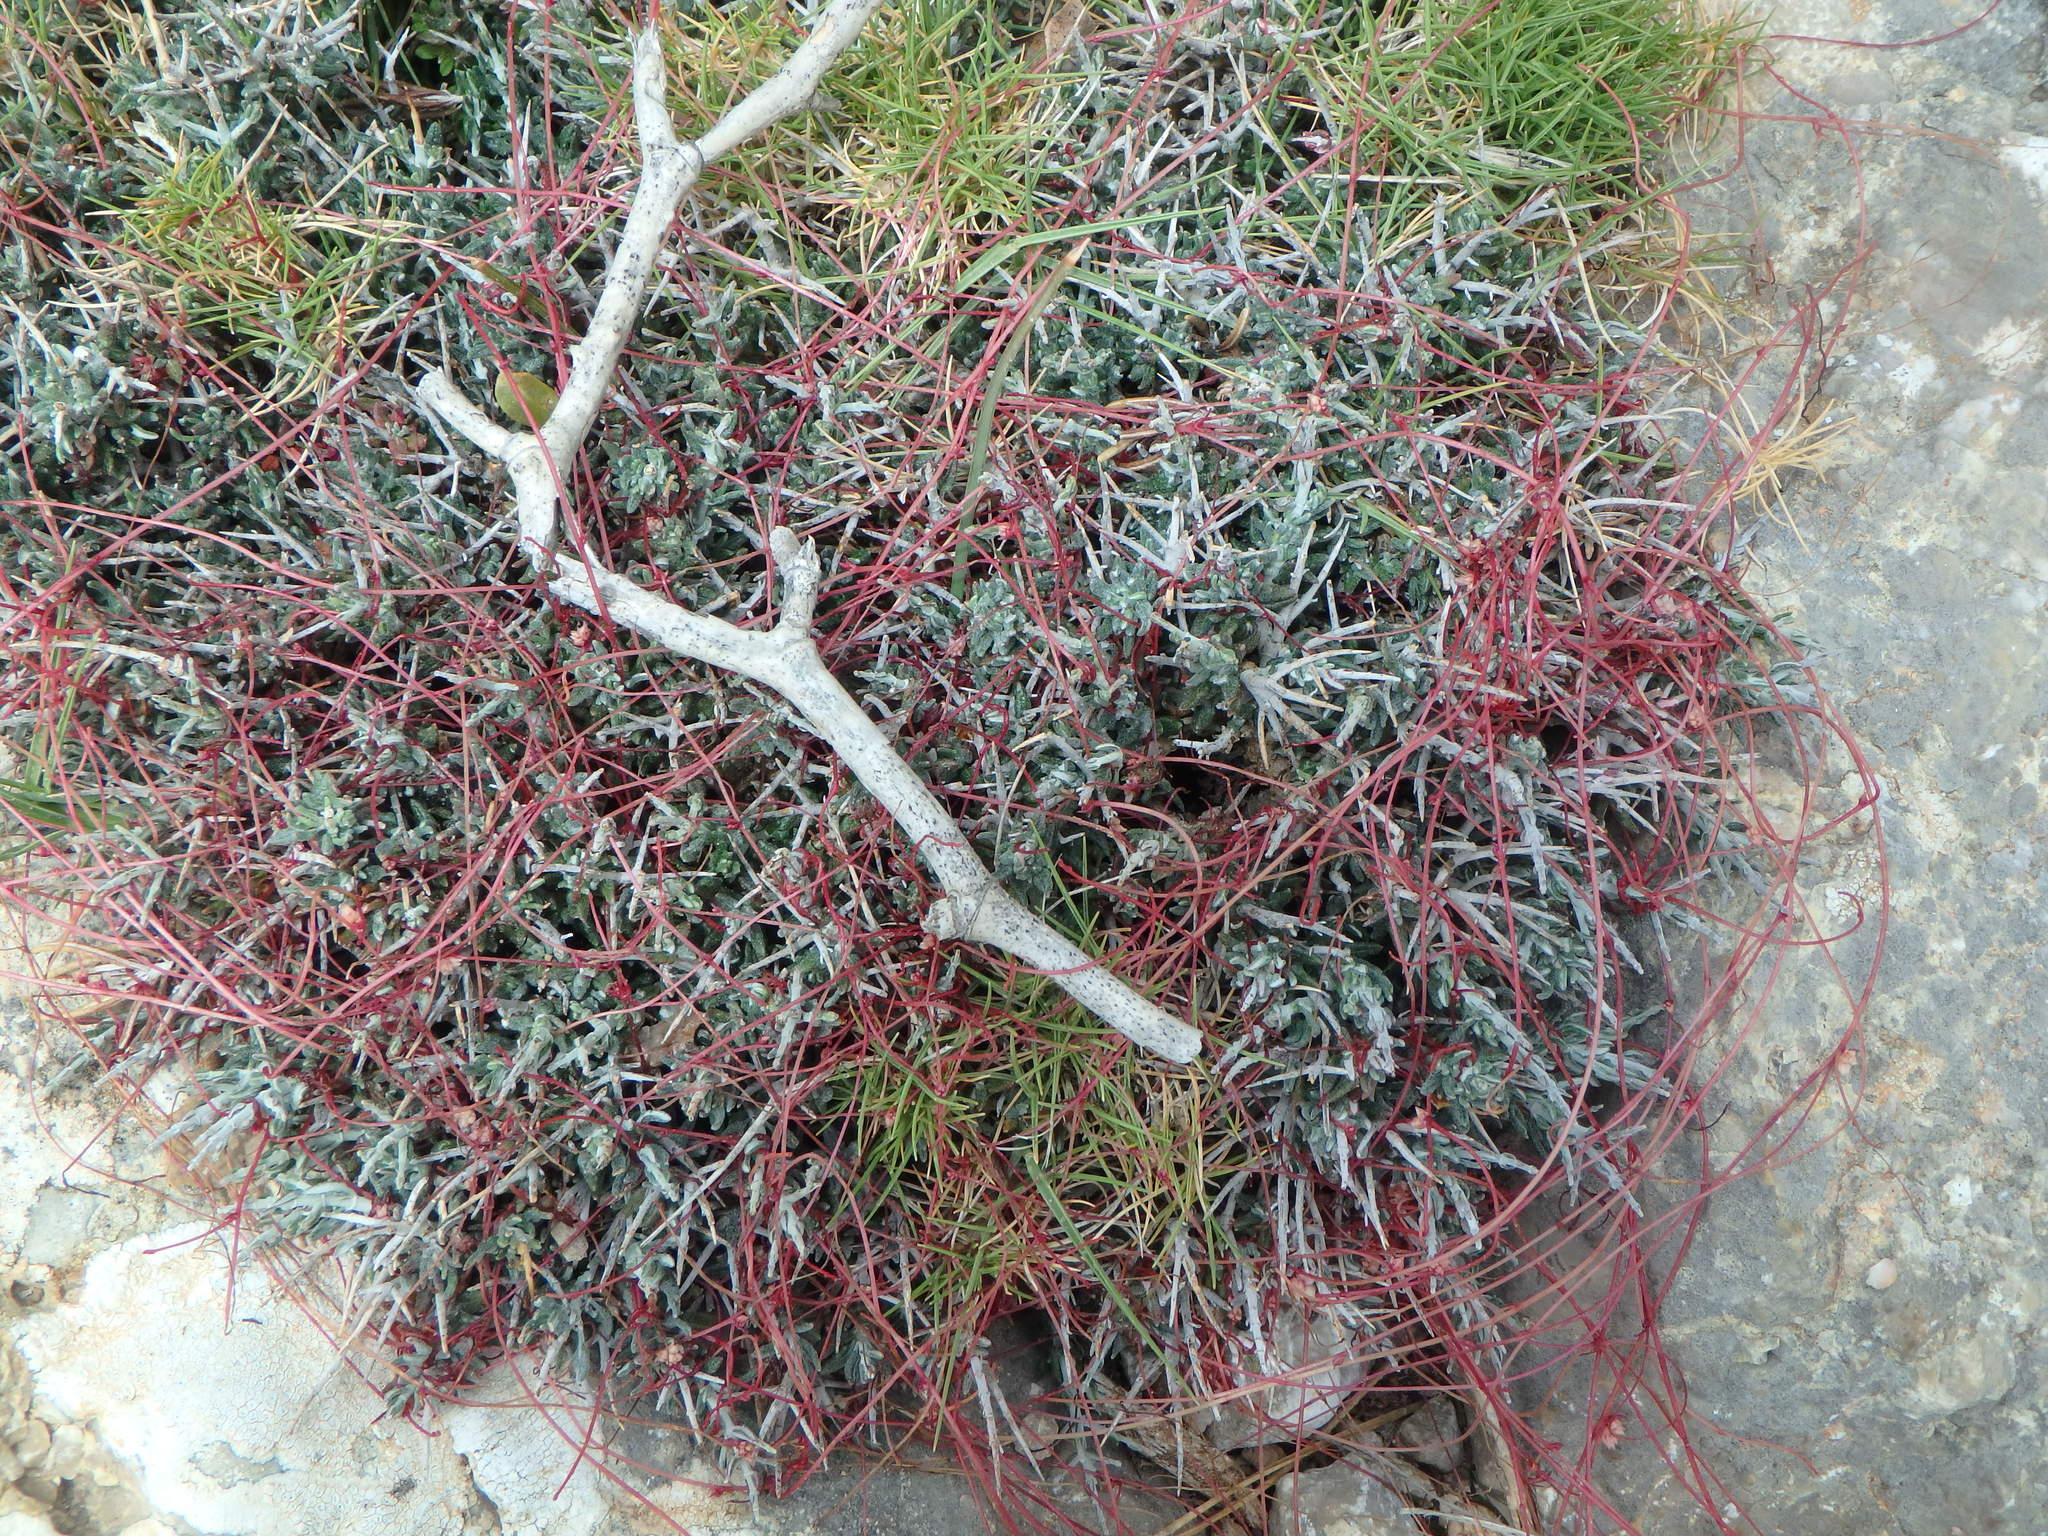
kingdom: Plantae
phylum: Tracheophyta
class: Magnoliopsida
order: Solanales
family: Convolvulaceae
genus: Cuscuta
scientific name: Cuscuta epithymum
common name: Clover dodder
